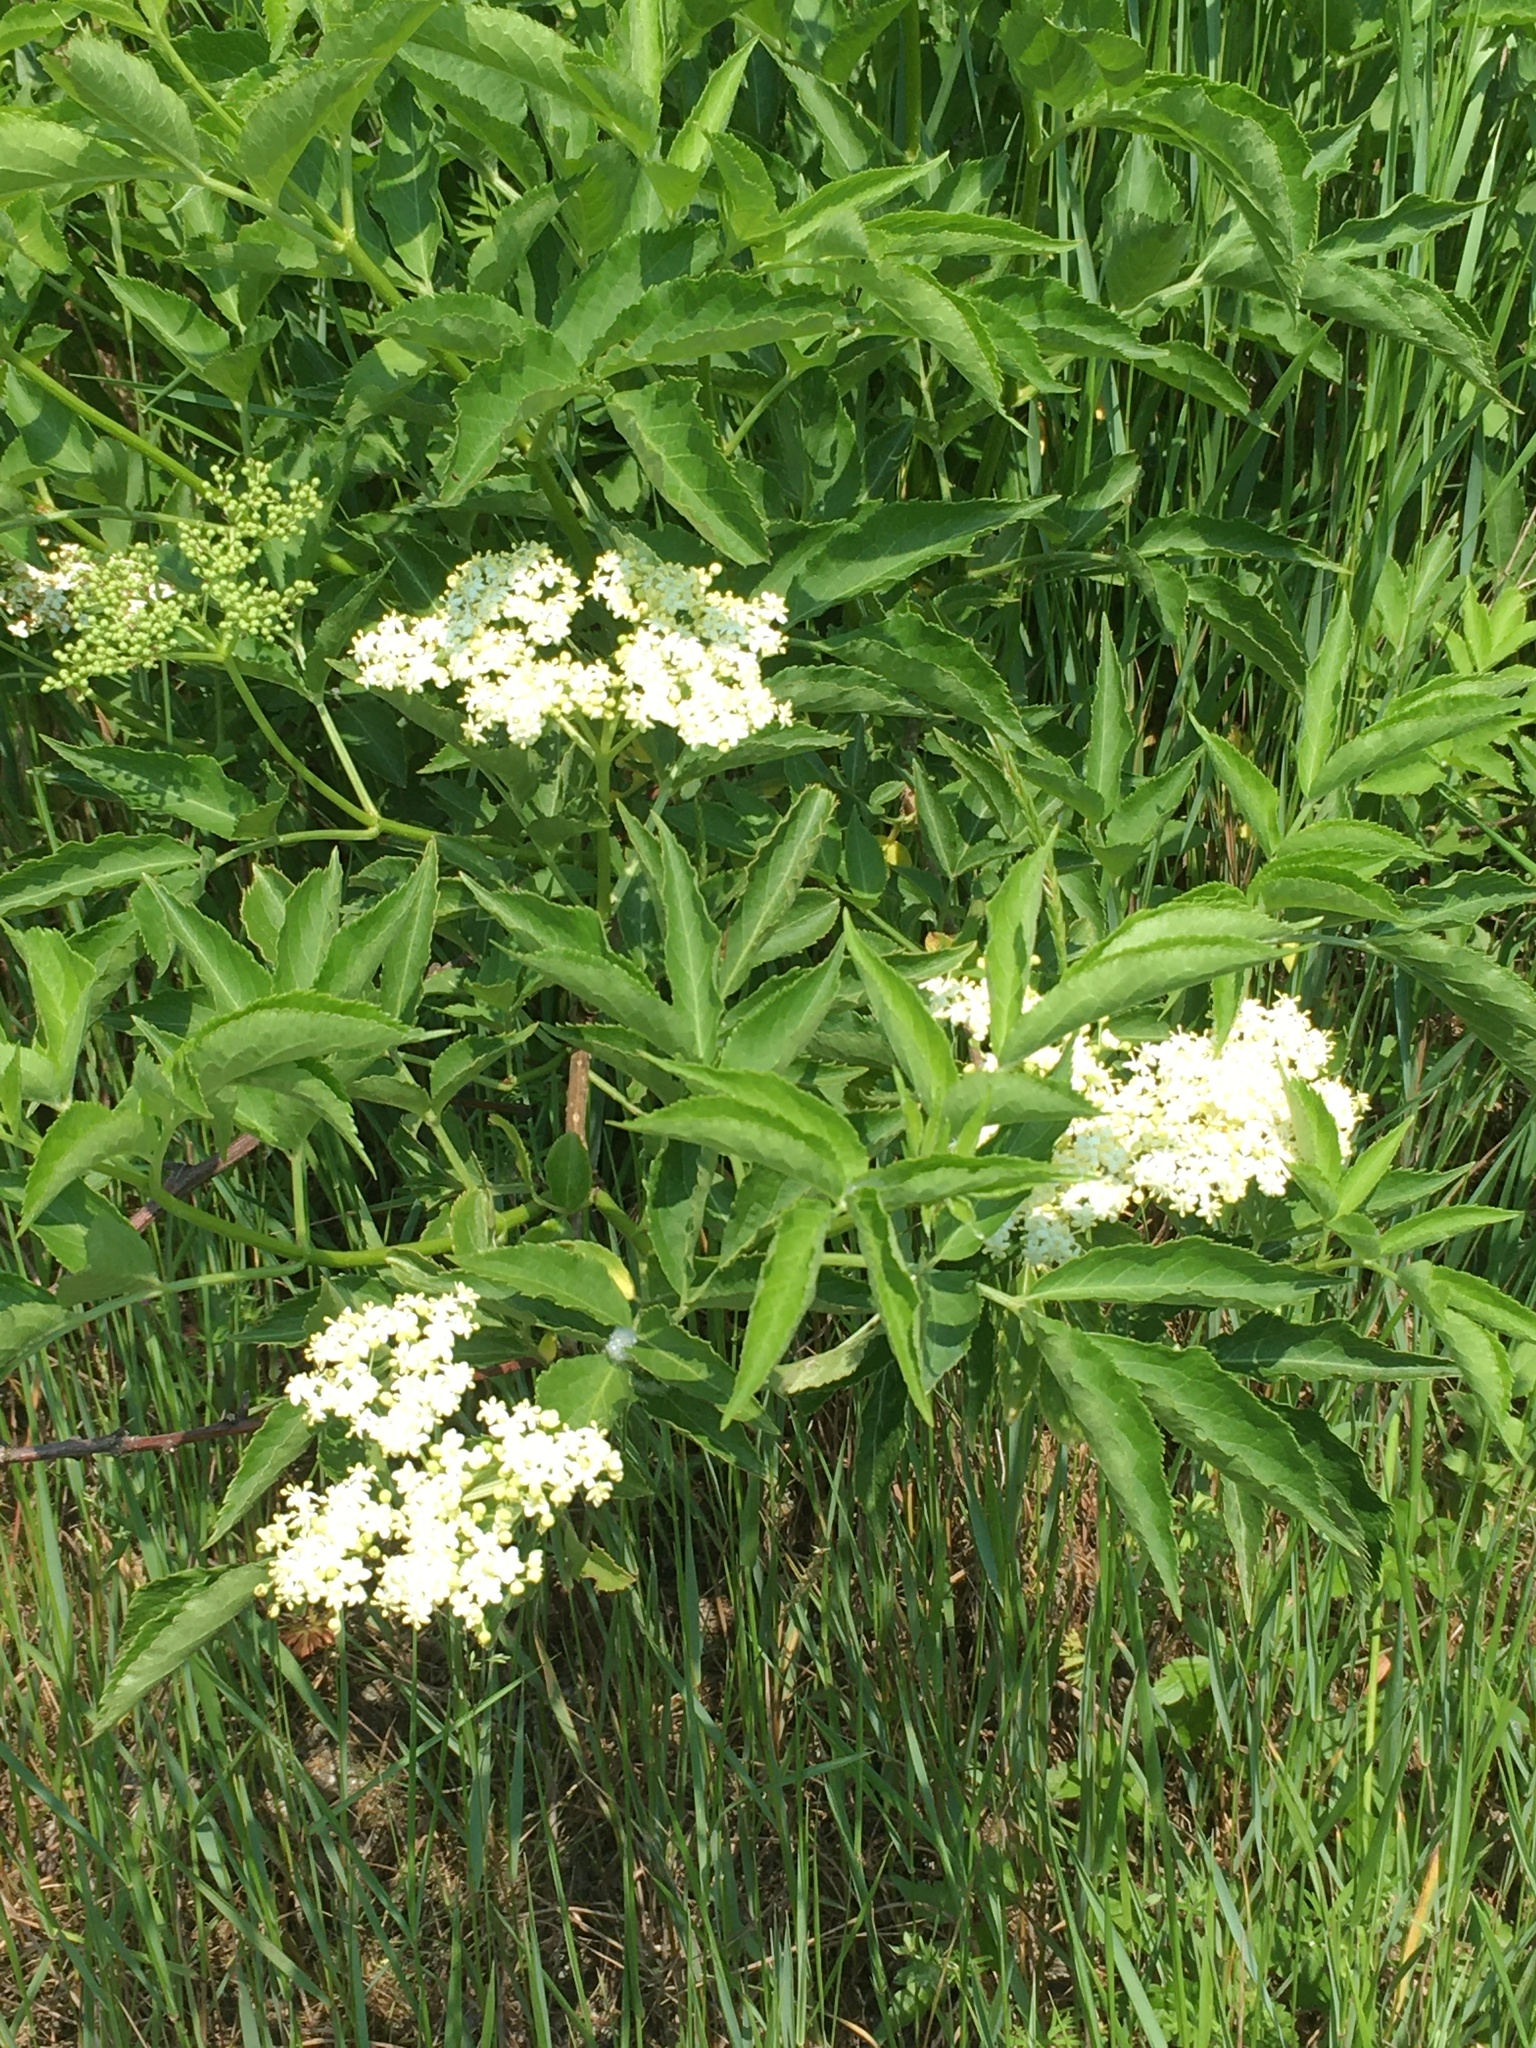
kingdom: Plantae
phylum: Tracheophyta
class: Magnoliopsida
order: Dipsacales
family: Viburnaceae
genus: Sambucus
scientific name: Sambucus nigra
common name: Elder
